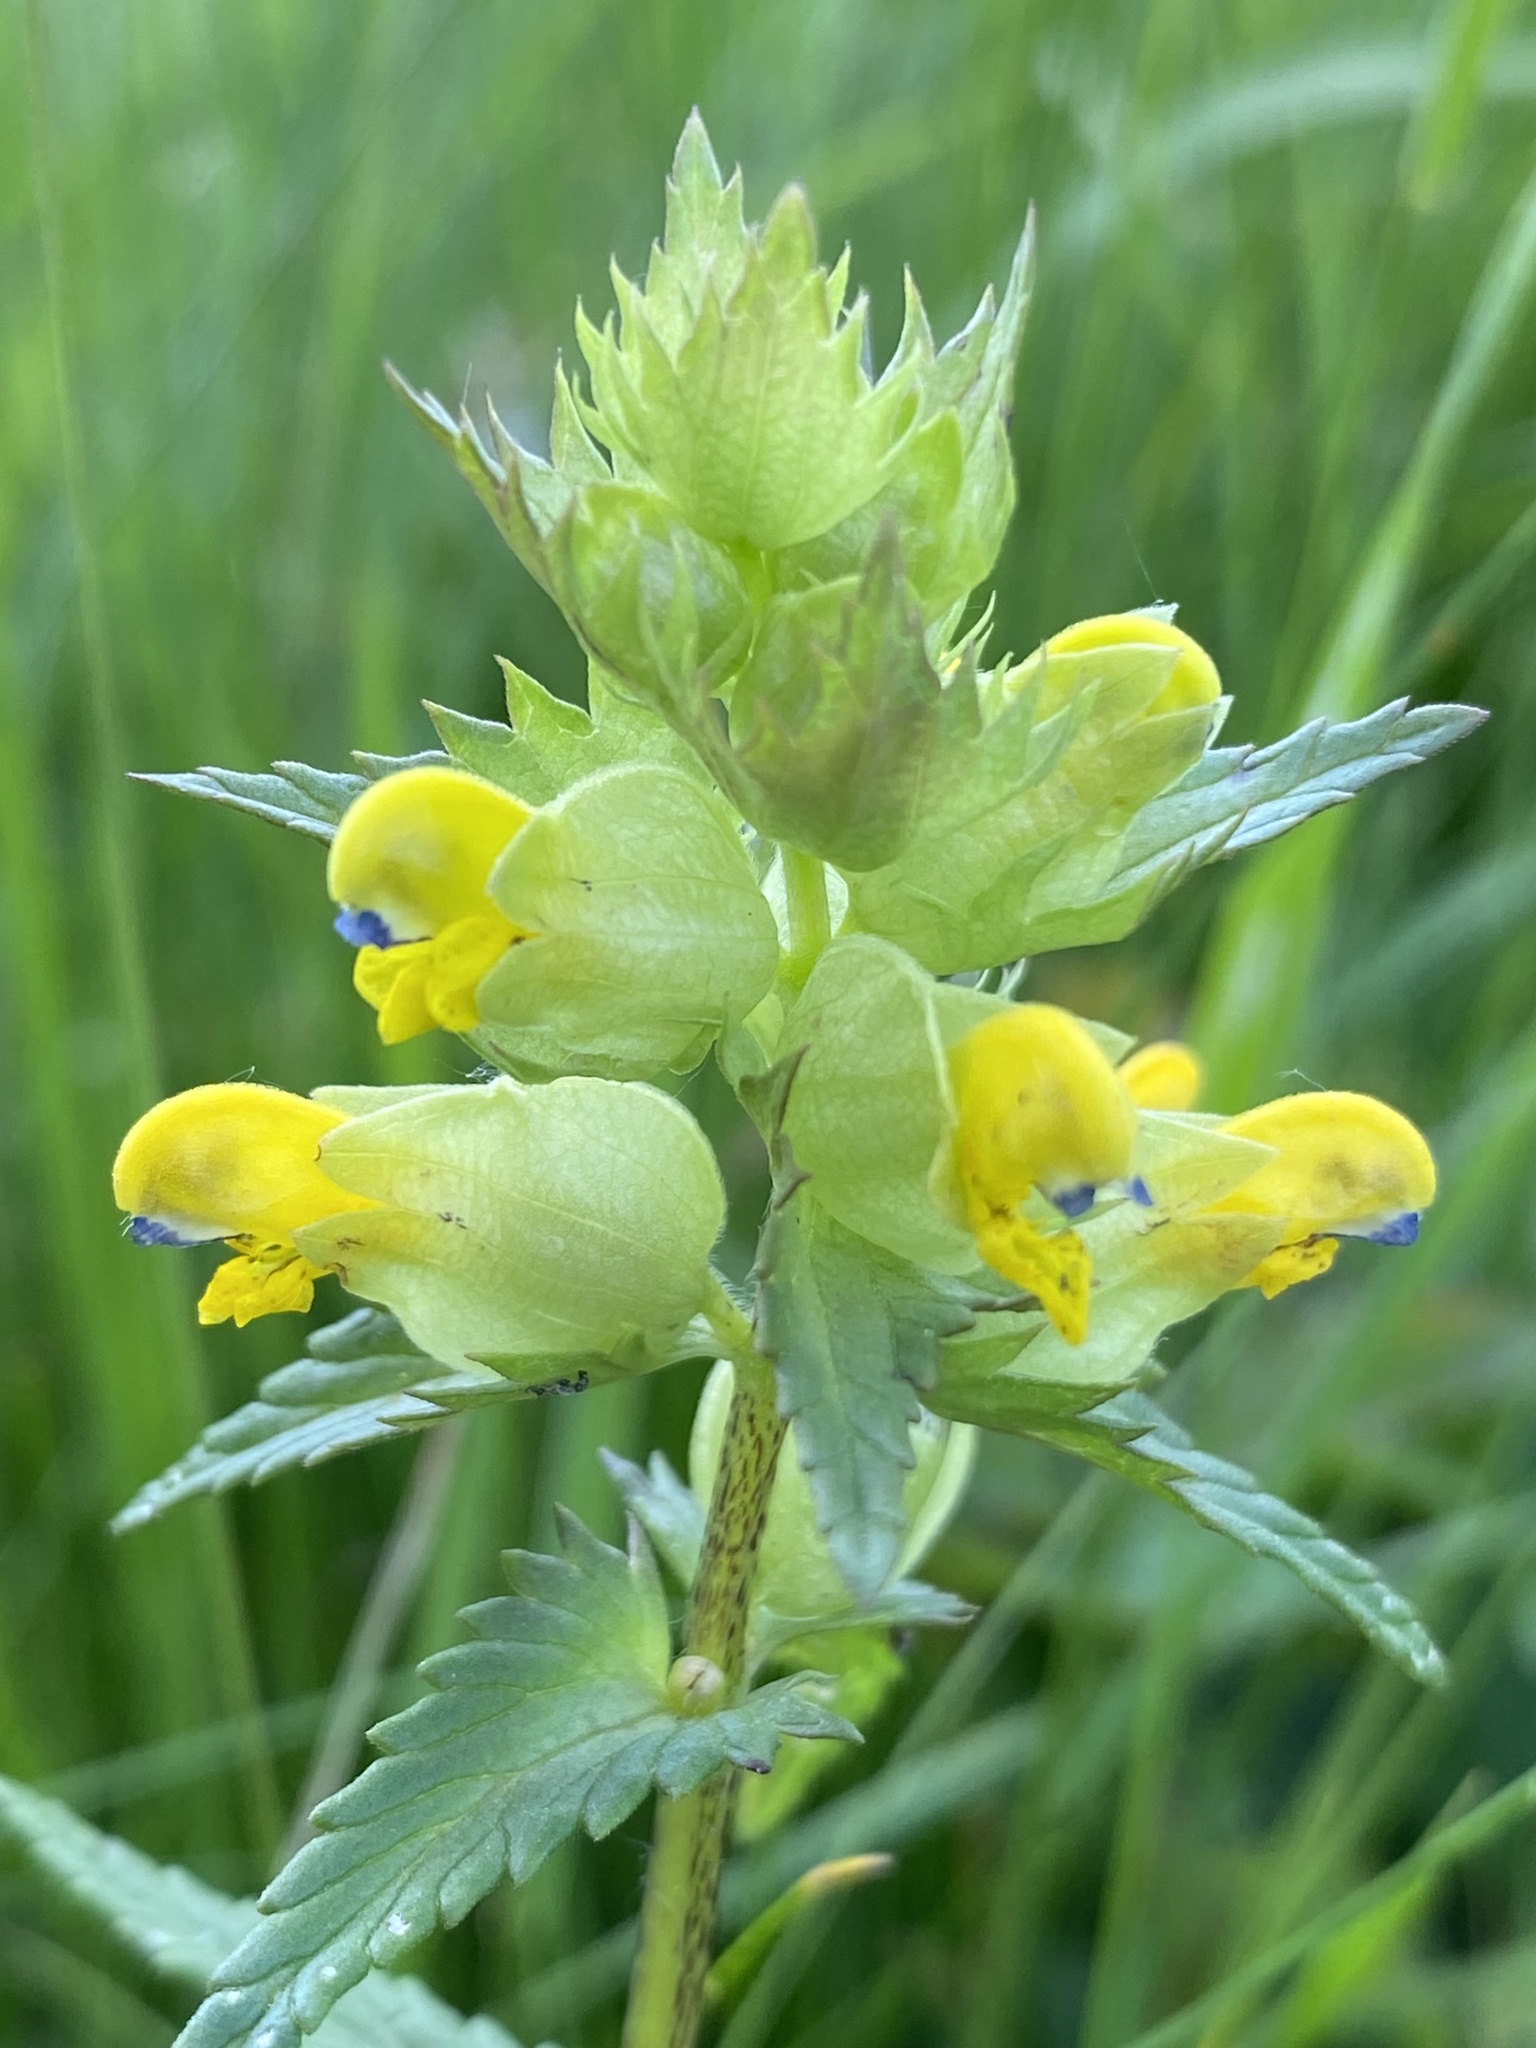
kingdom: Plantae
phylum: Tracheophyta
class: Magnoliopsida
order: Lamiales
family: Orobanchaceae
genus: Rhinanthus
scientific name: Rhinanthus minor
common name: Yellow-rattle
